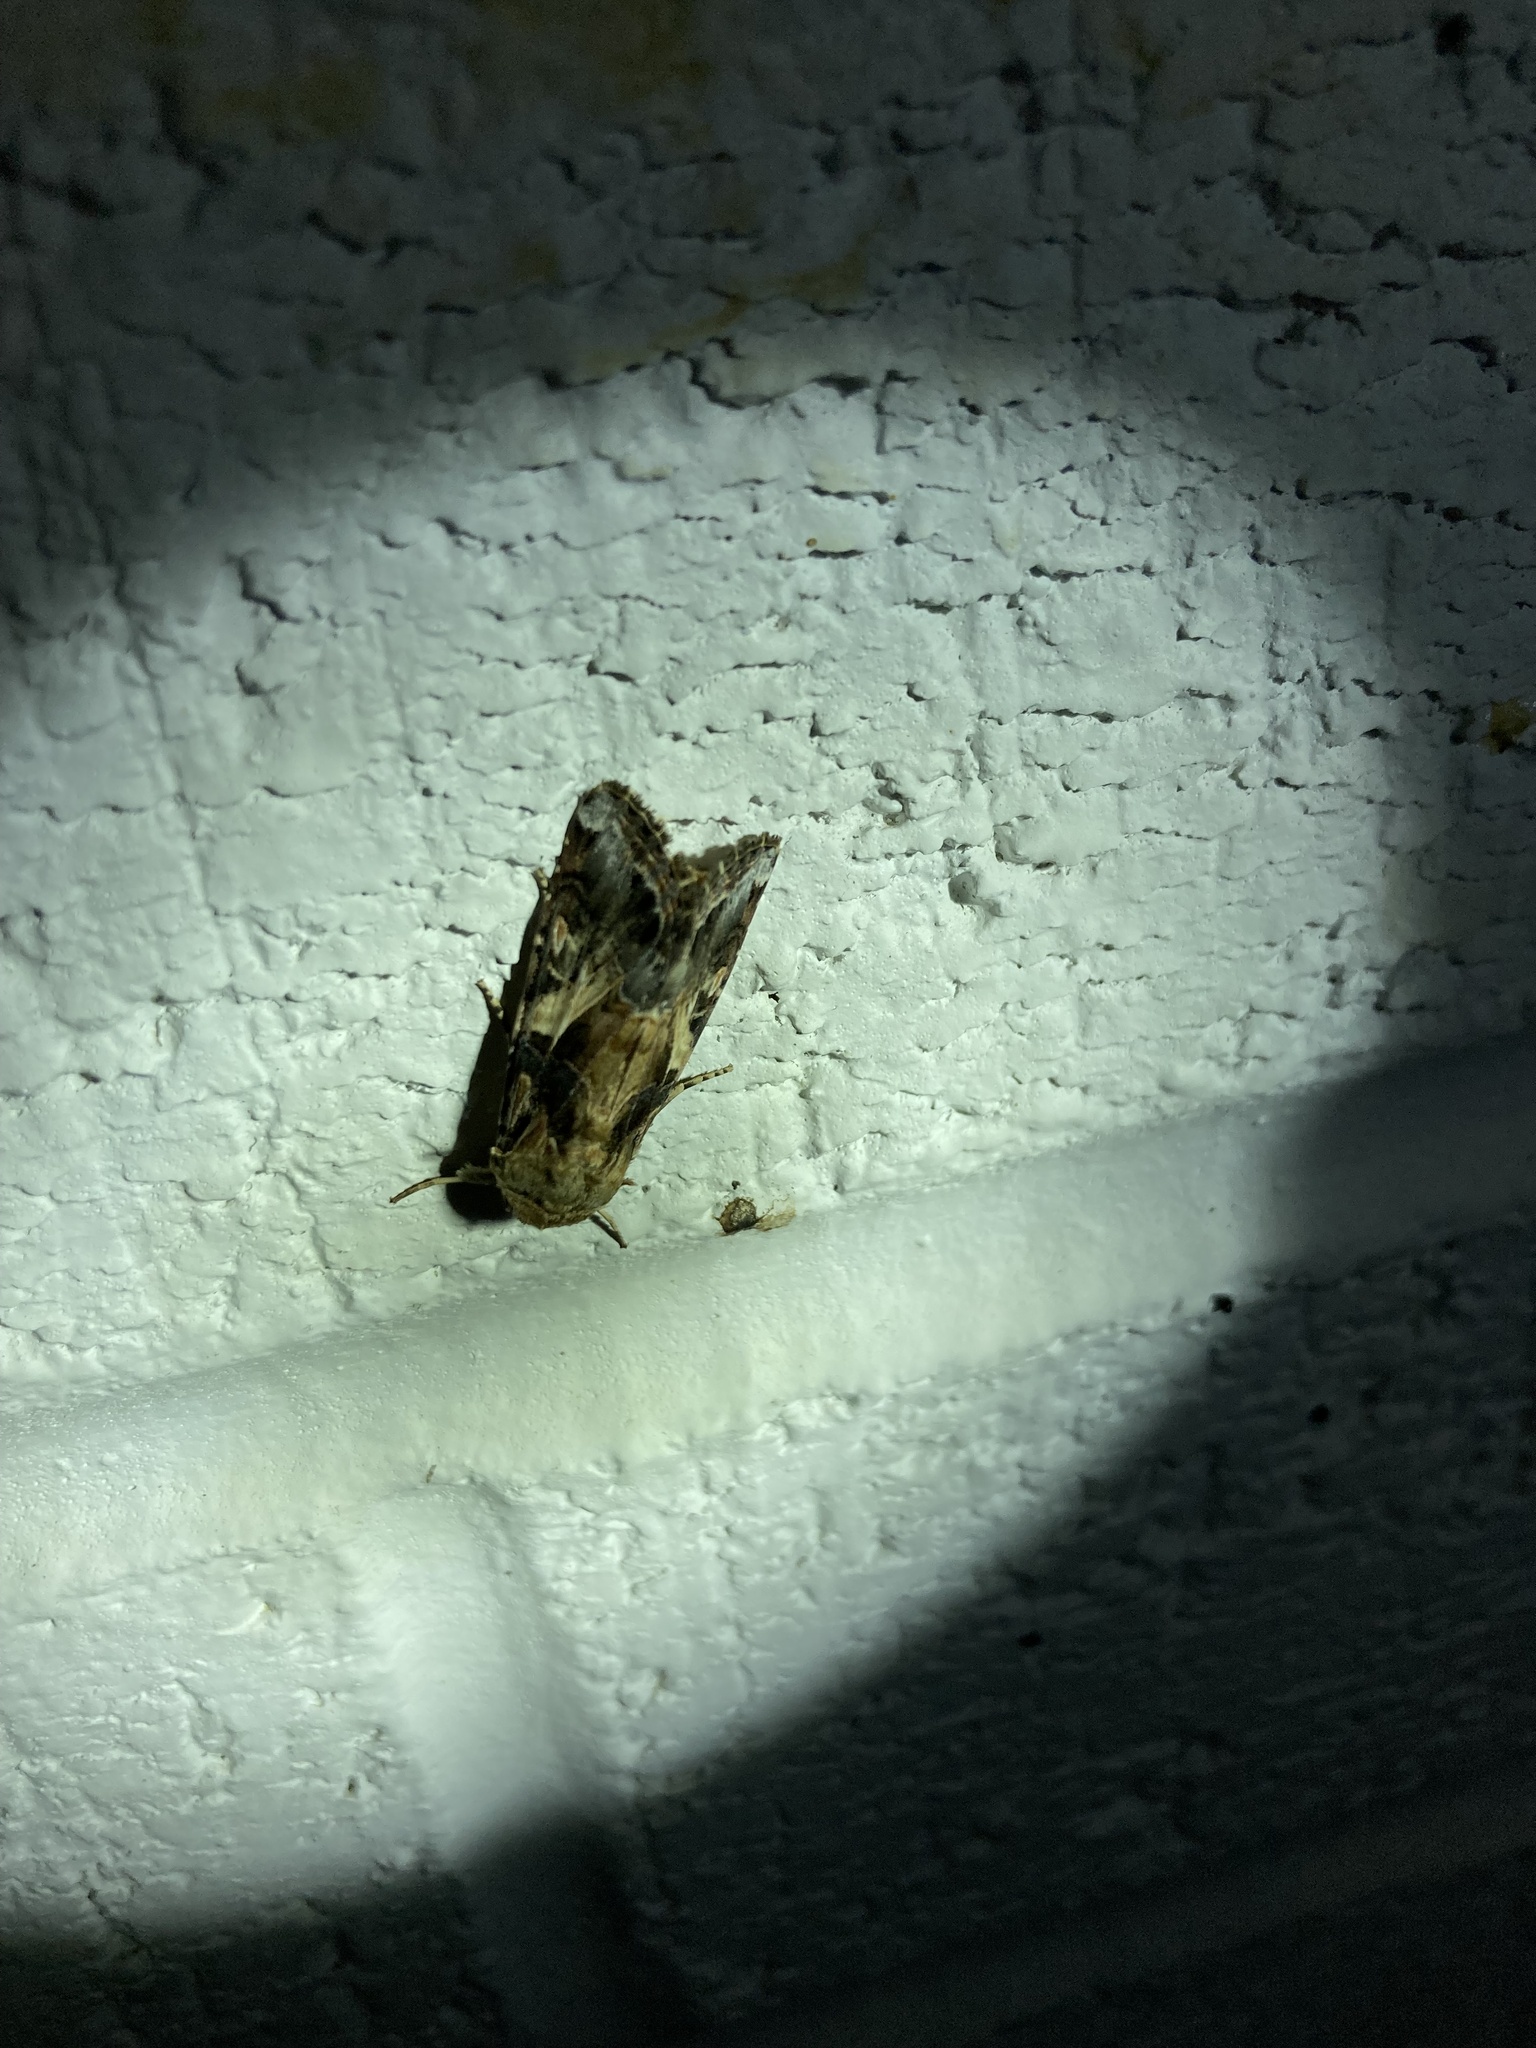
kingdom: Animalia
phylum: Arthropoda
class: Insecta
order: Lepidoptera
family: Noctuidae
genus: Spodoptera
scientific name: Spodoptera ornithogalli
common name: Yellow-striped armyworm
